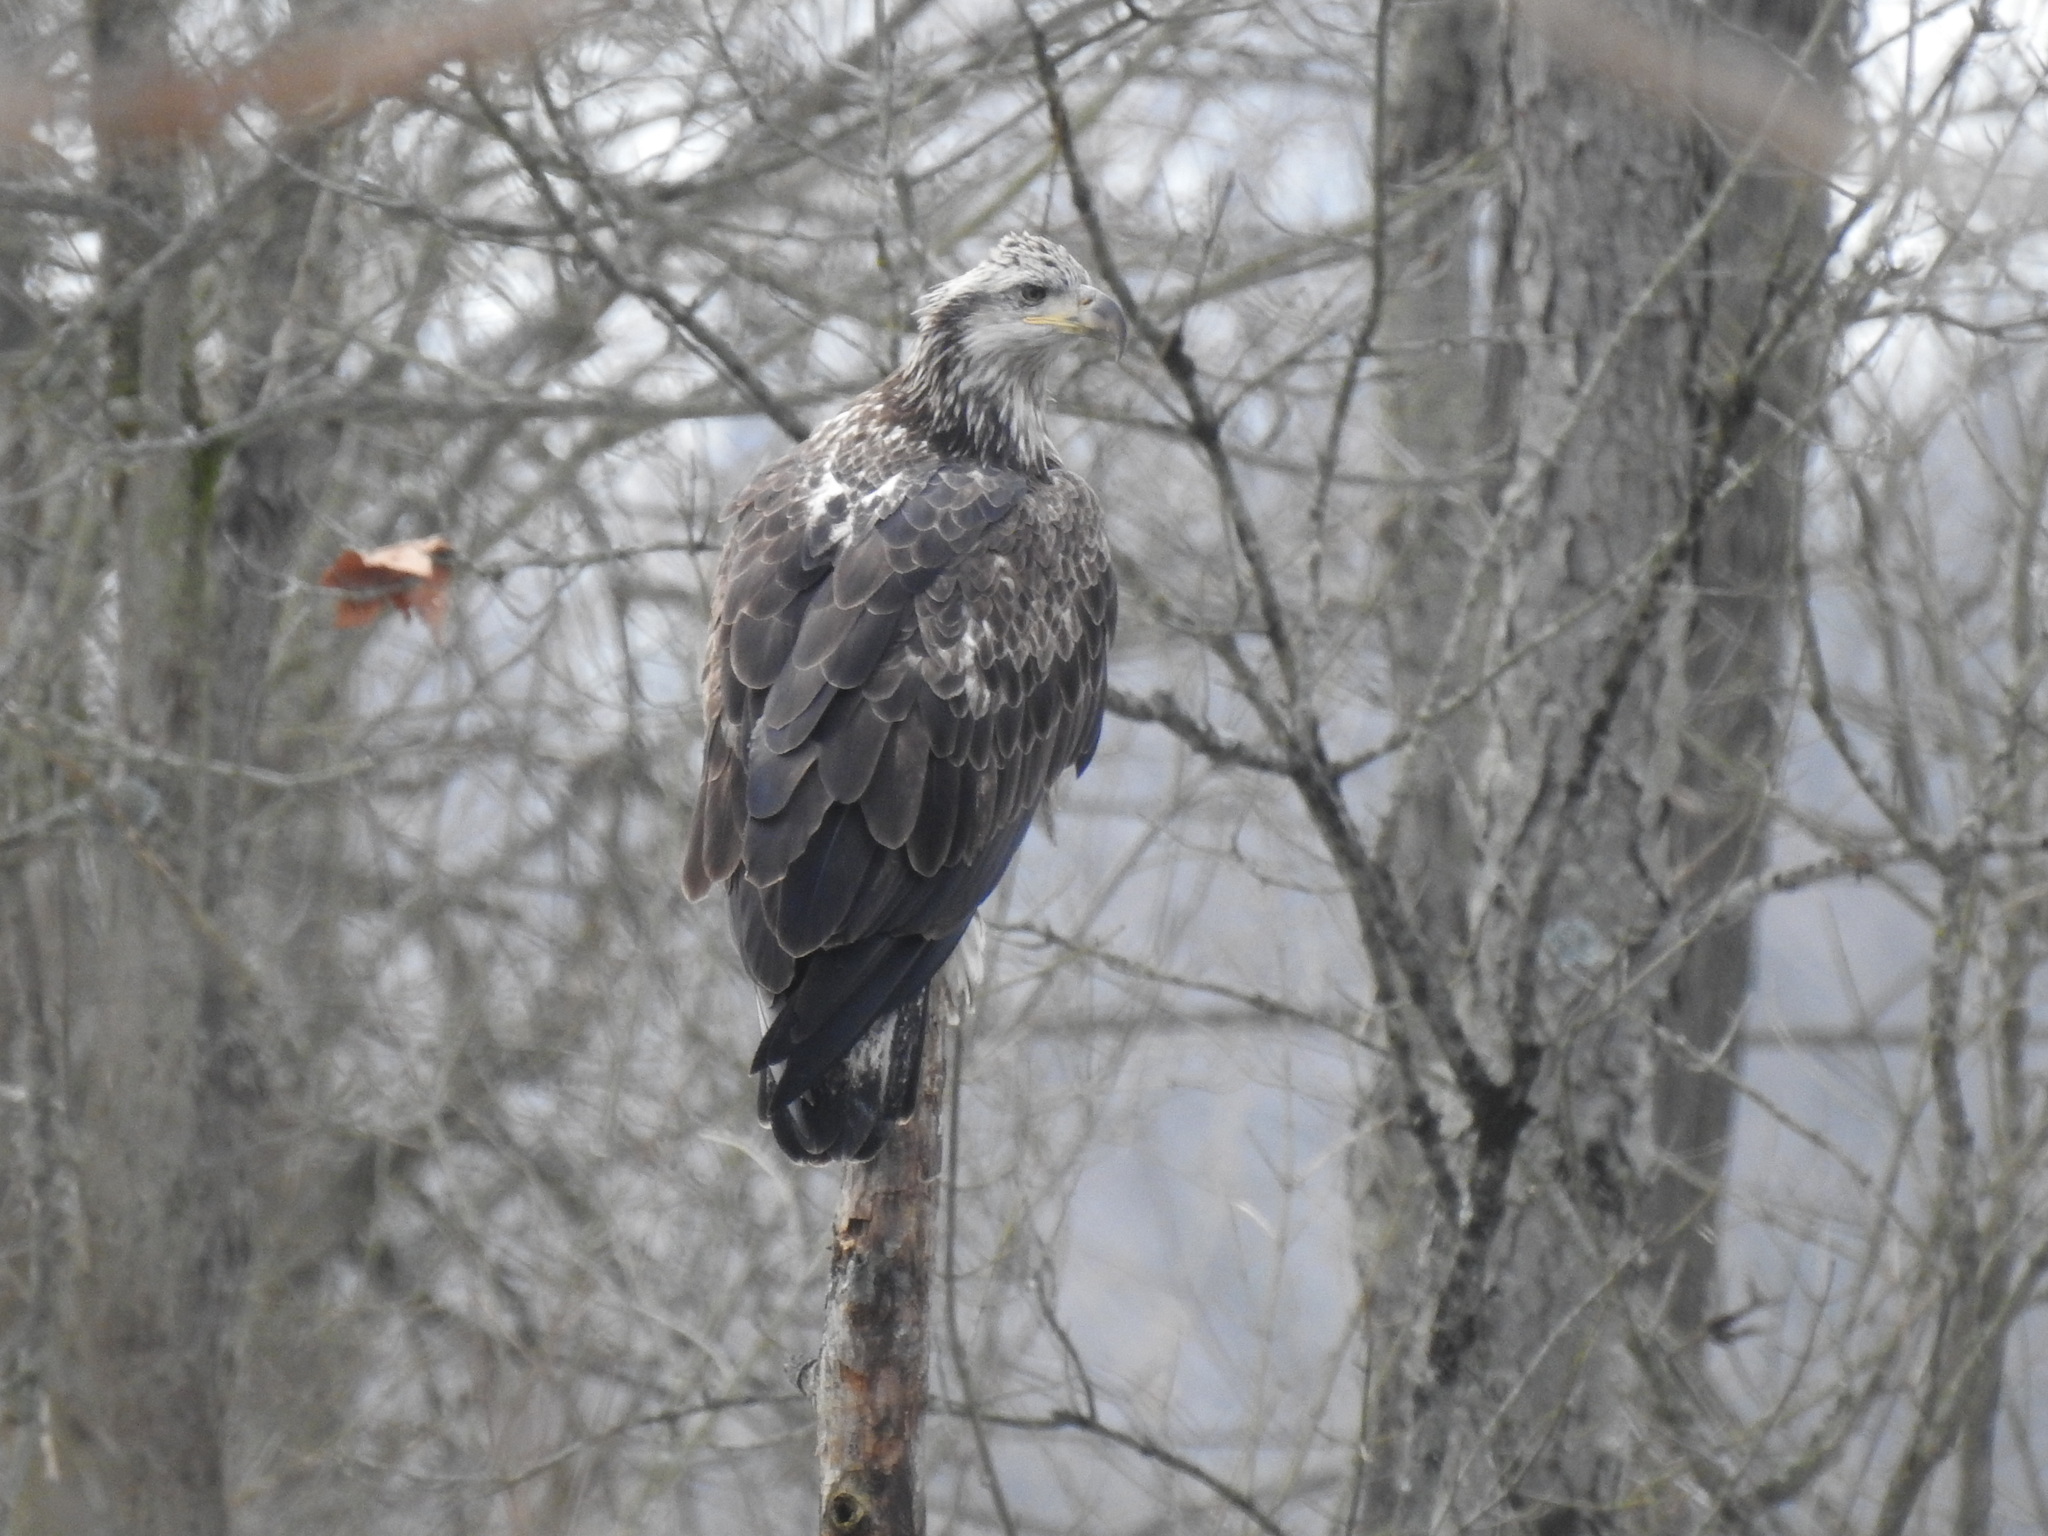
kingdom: Animalia
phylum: Chordata
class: Aves
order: Accipitriformes
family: Accipitridae
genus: Haliaeetus
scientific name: Haliaeetus leucocephalus
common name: Bald eagle
